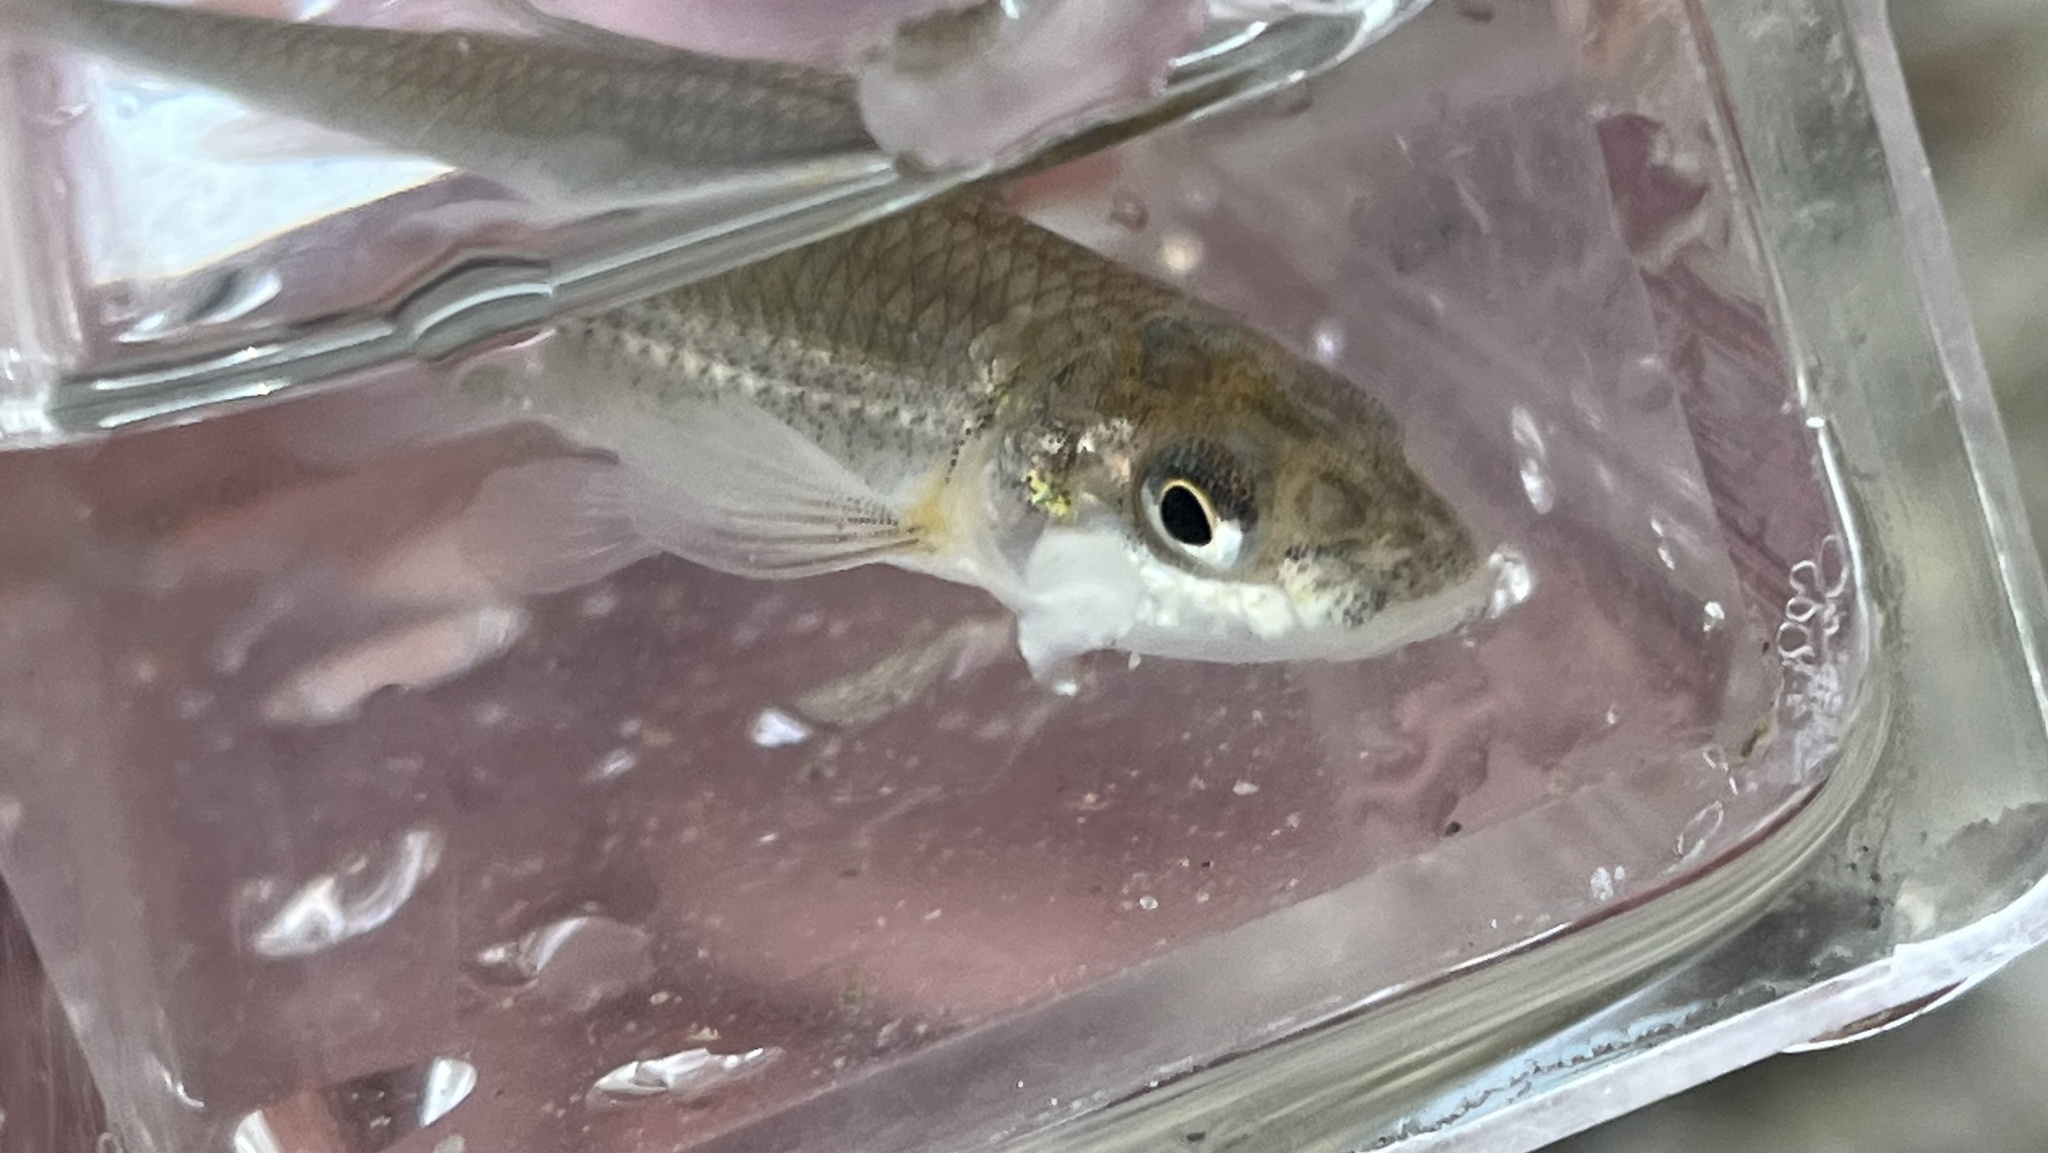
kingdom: Animalia
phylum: Chordata
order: Cypriniformes
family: Cyprinidae
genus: Notropis
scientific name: Notropis buccatus
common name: Silverjaw minnow
